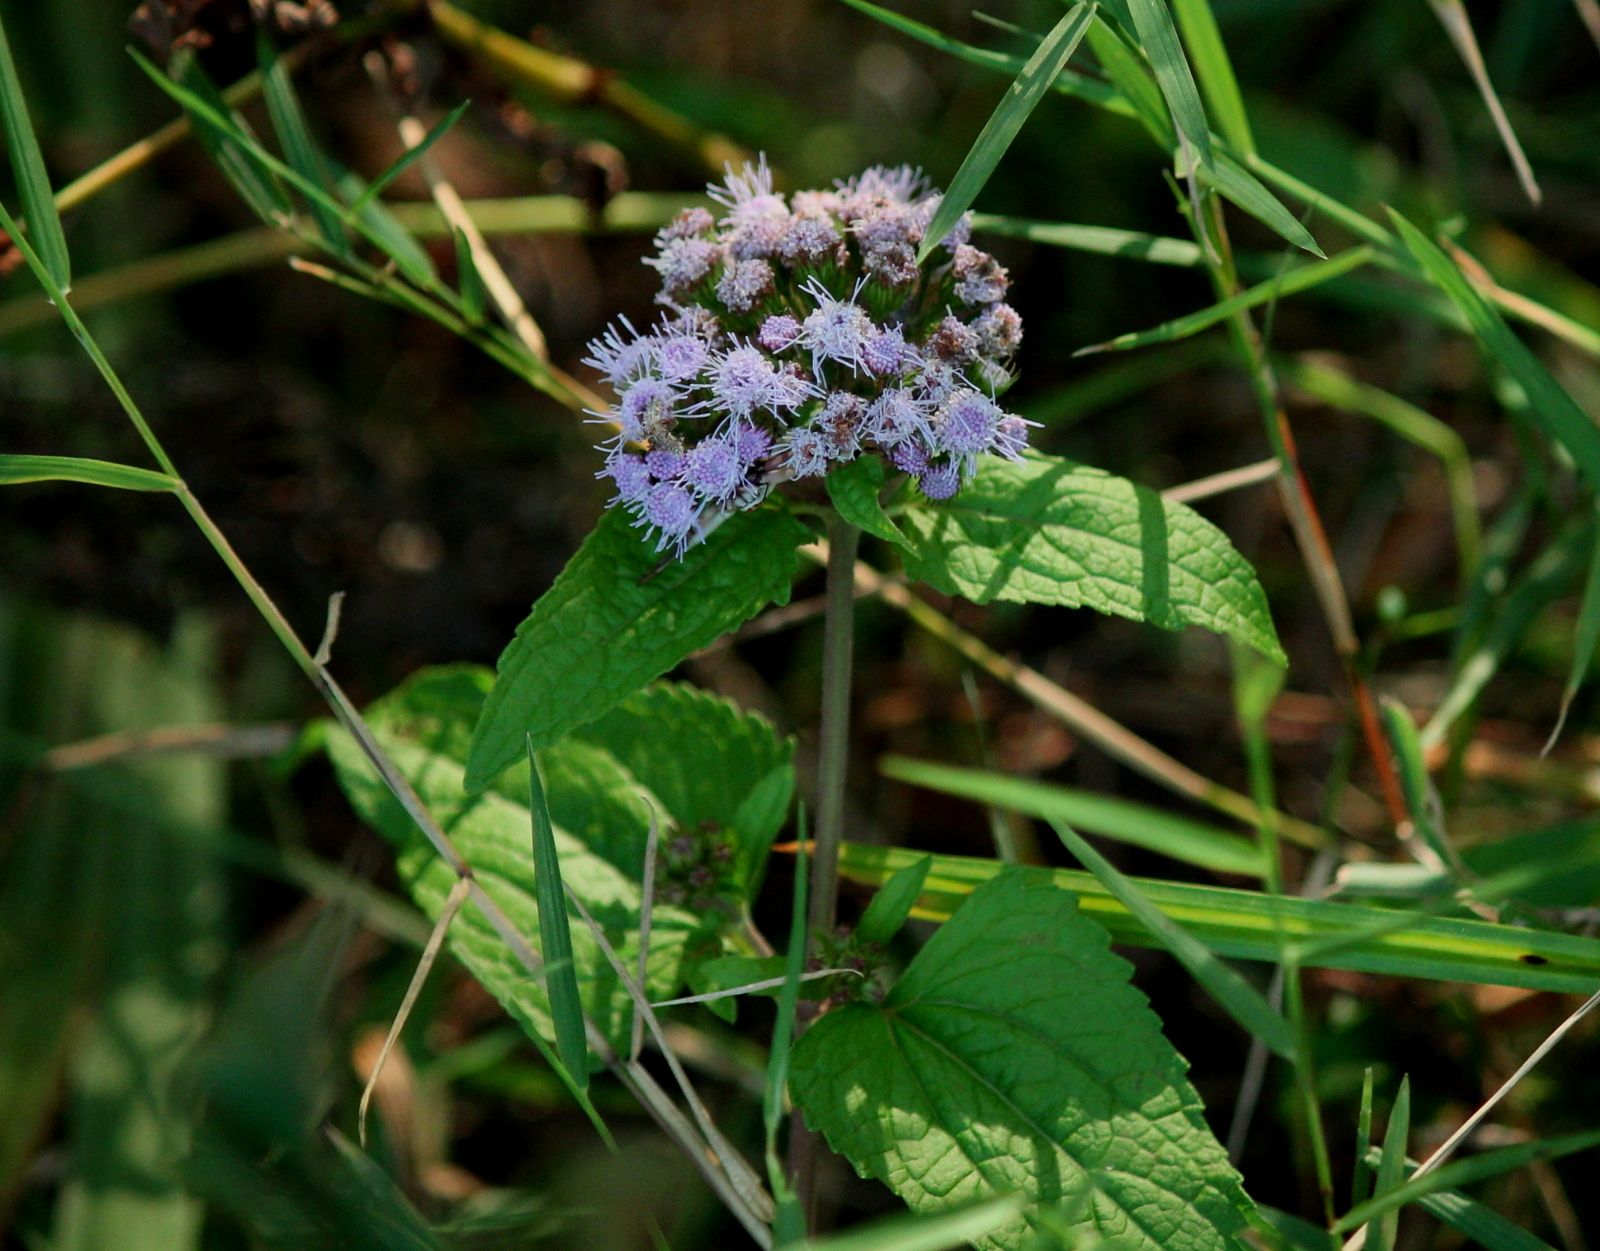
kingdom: Plantae
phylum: Tracheophyta
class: Magnoliopsida
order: Asterales
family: Asteraceae
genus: Conoclinium
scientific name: Conoclinium coelestinum
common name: Blue mistflower
